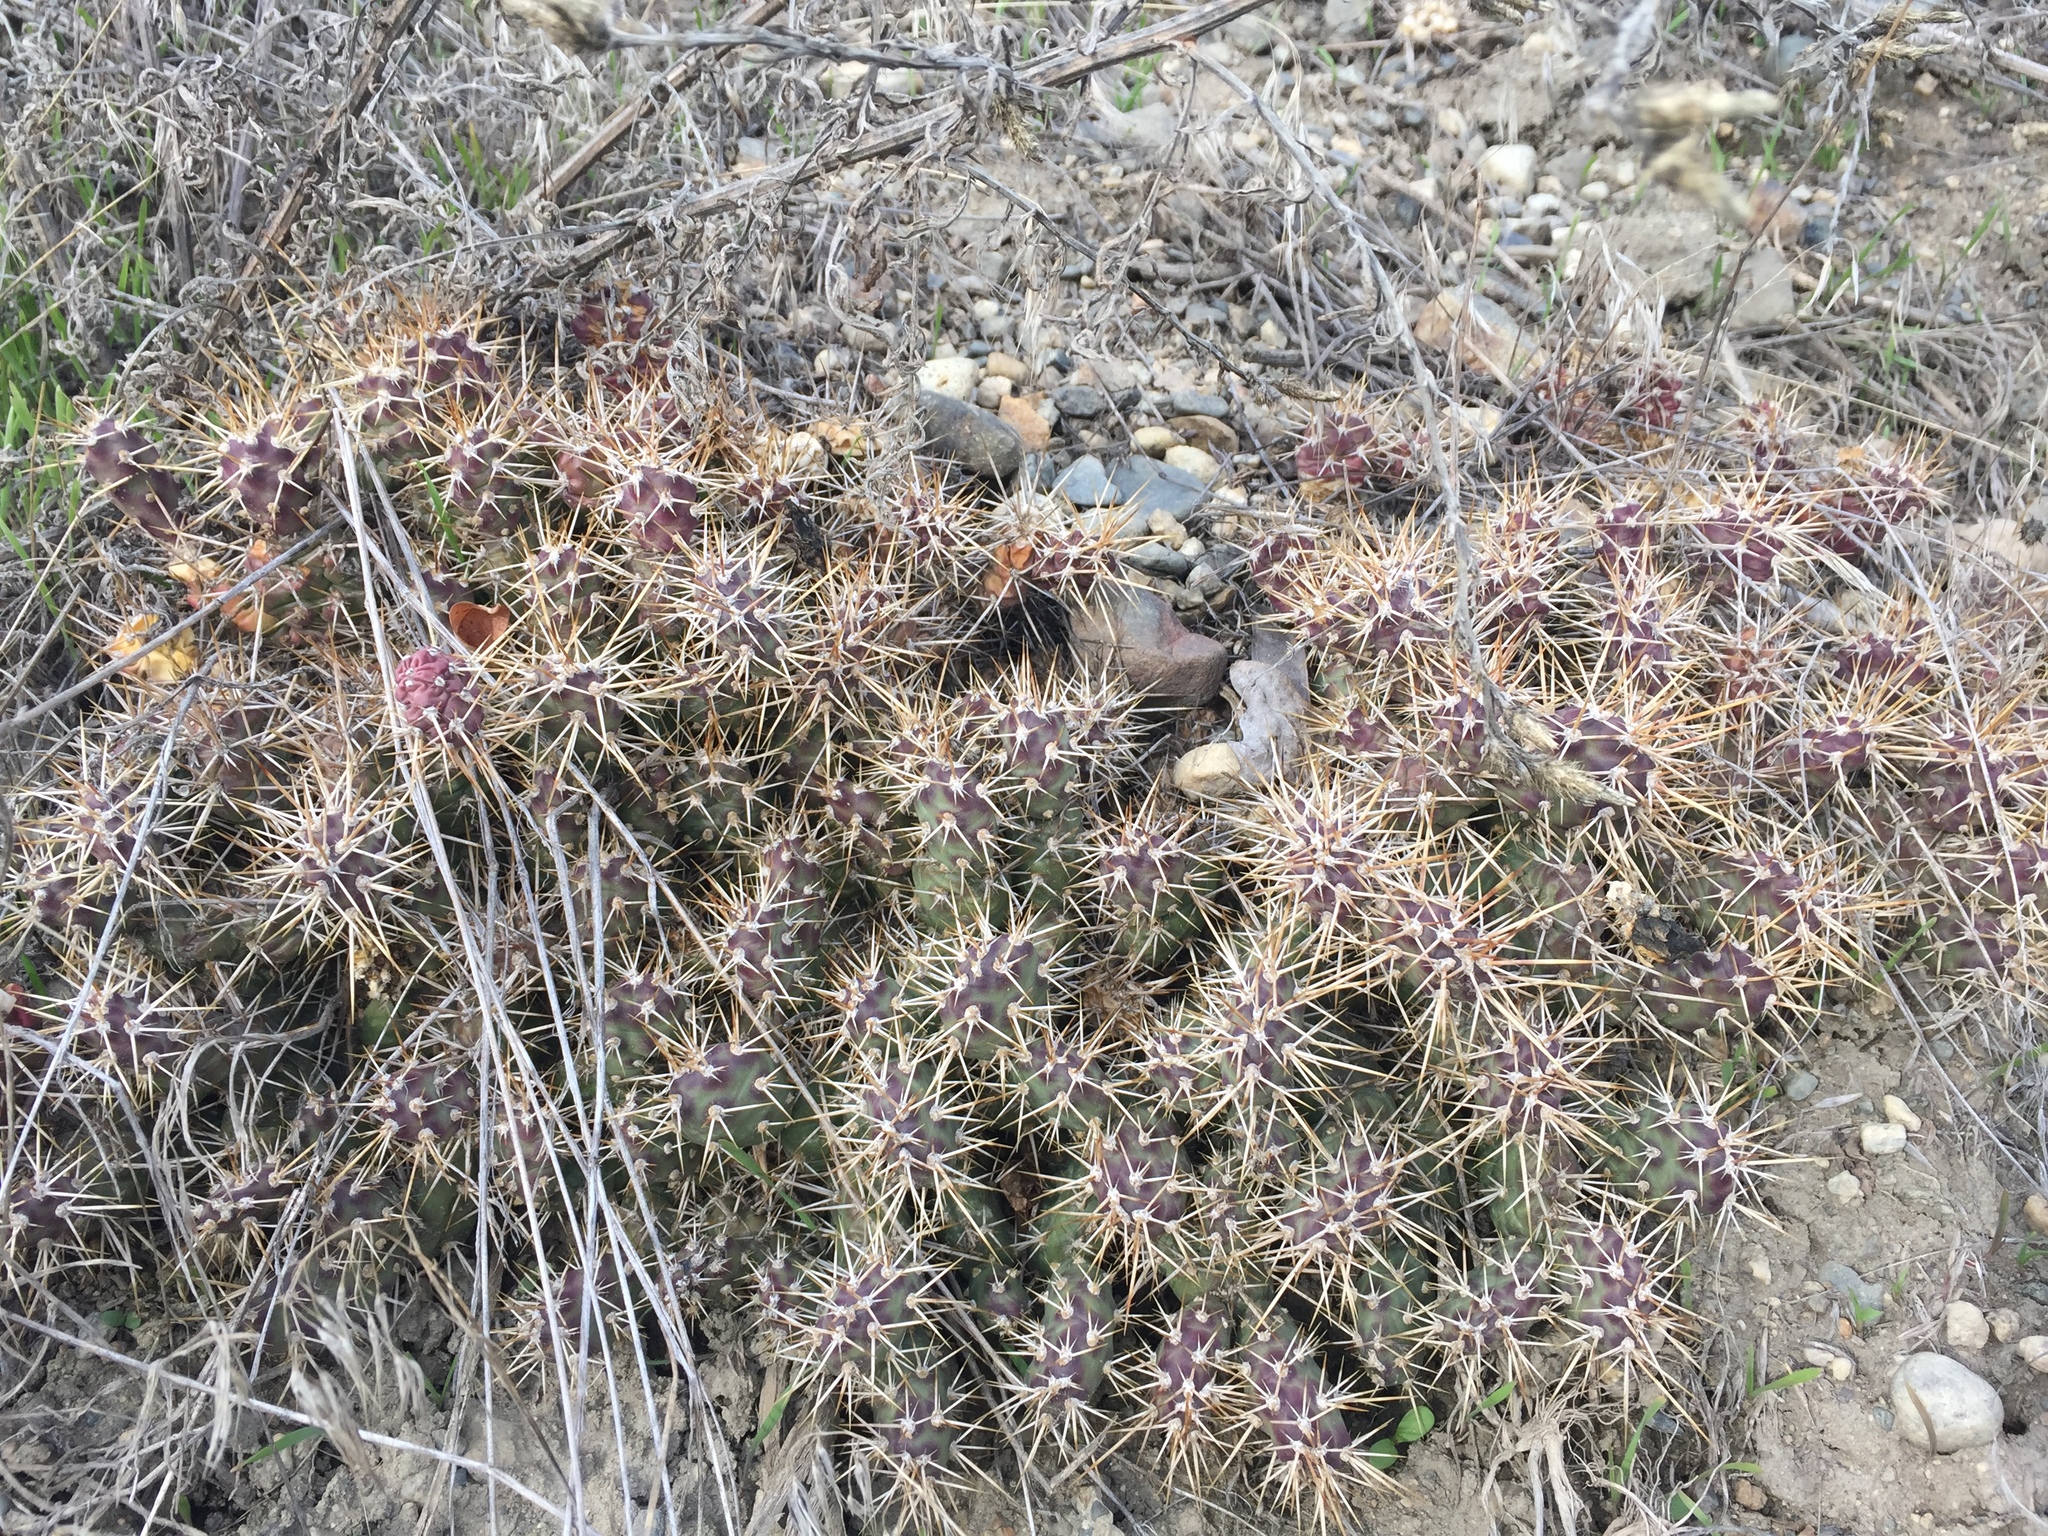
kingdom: Plantae
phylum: Tracheophyta
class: Magnoliopsida
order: Caryophyllales
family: Cactaceae
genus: Opuntia
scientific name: Opuntia fragilis
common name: Brittle cactus
